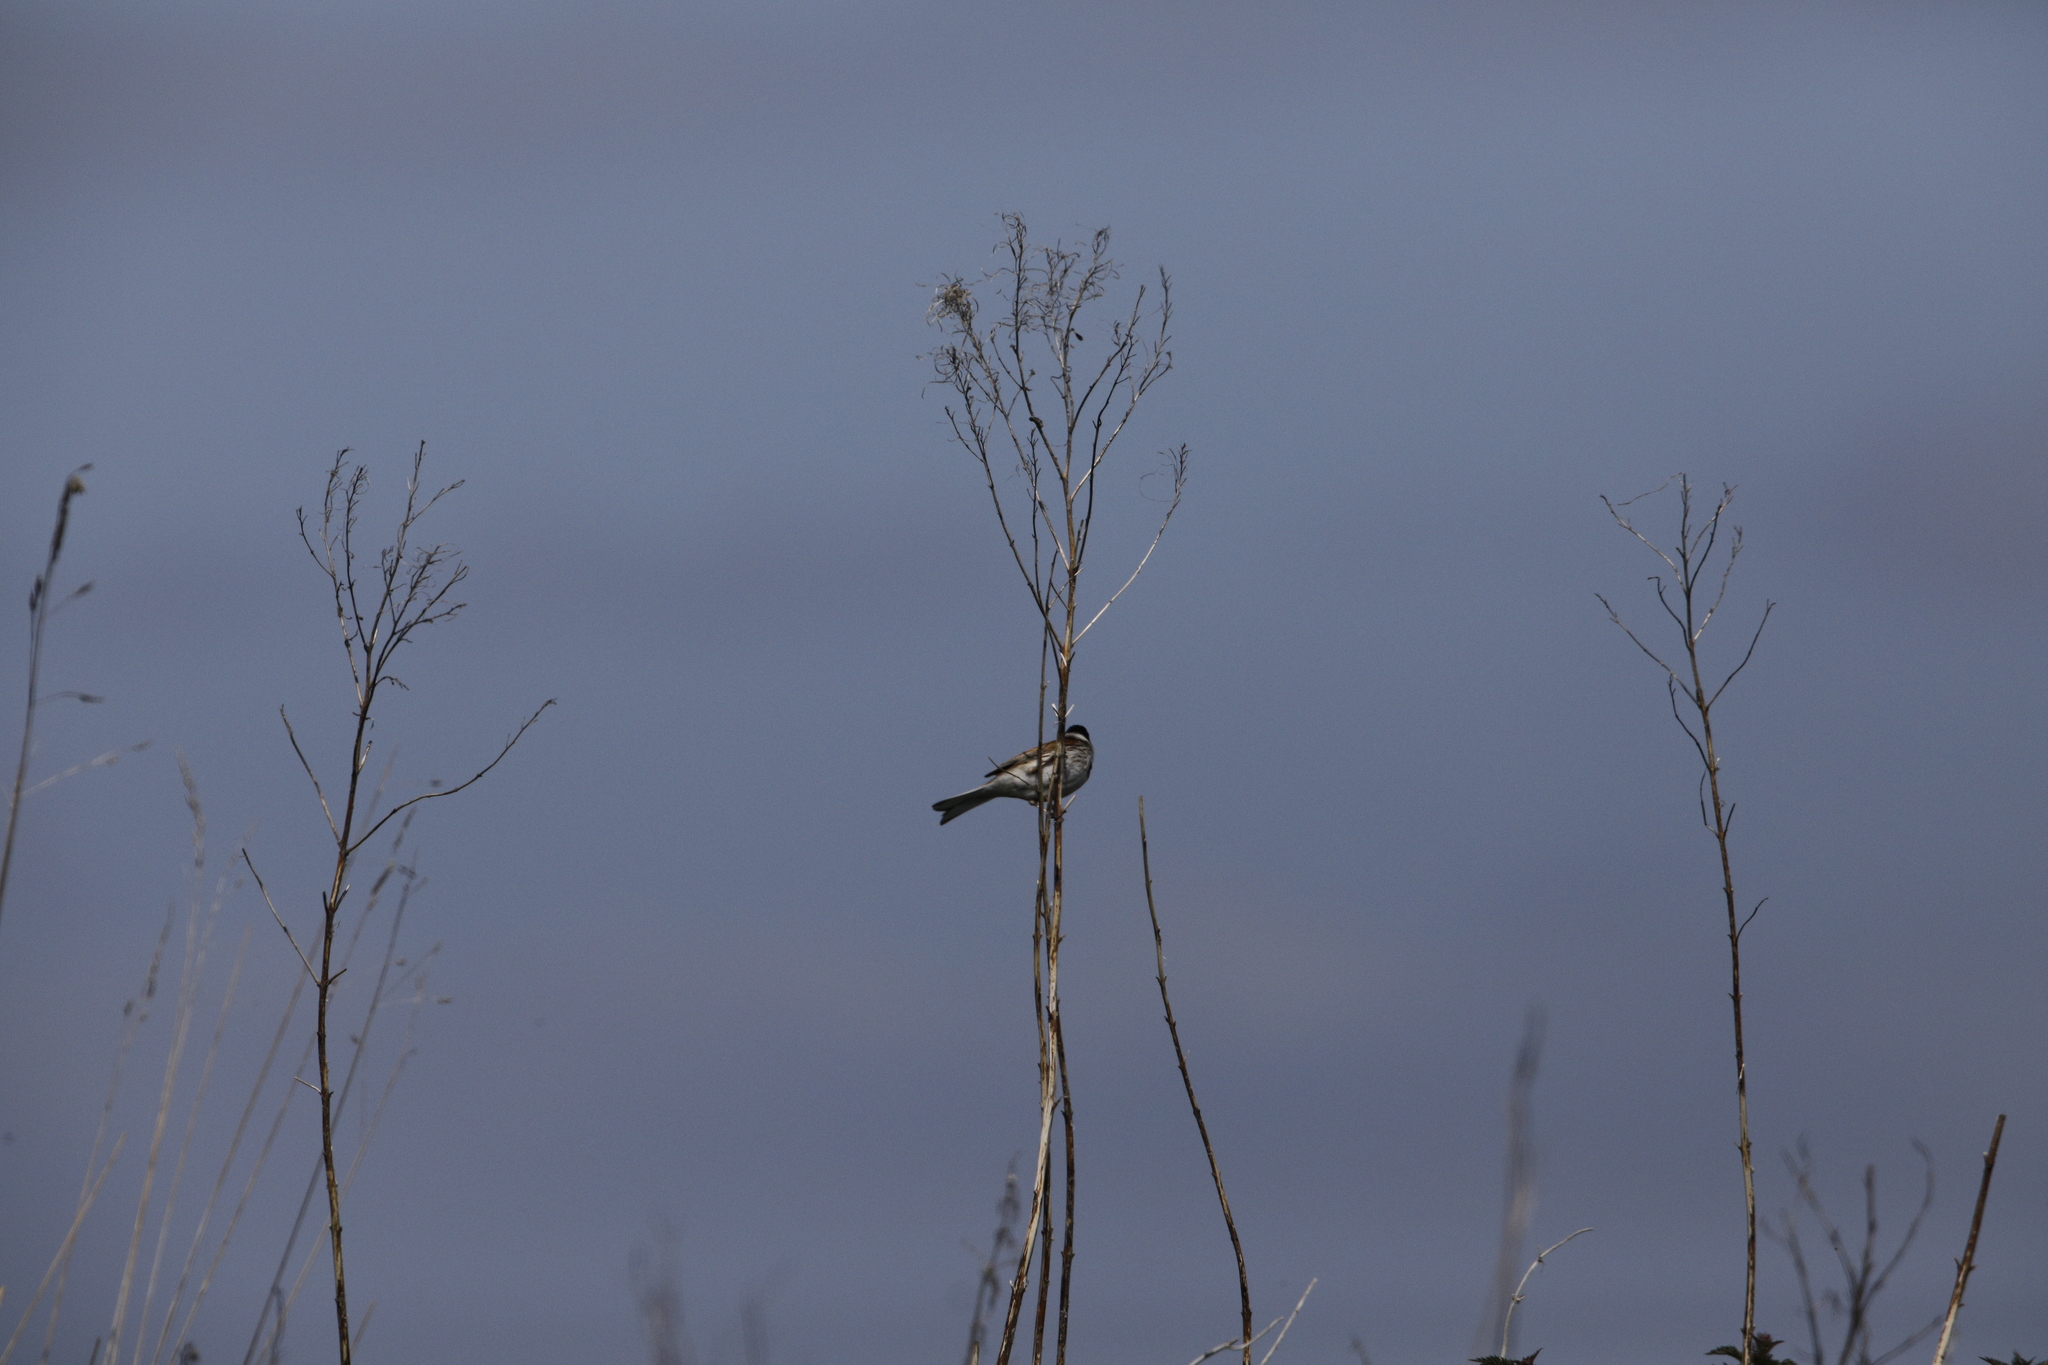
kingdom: Animalia
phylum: Chordata
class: Aves
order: Passeriformes
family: Emberizidae
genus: Emberiza
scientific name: Emberiza schoeniclus
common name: Reed bunting
